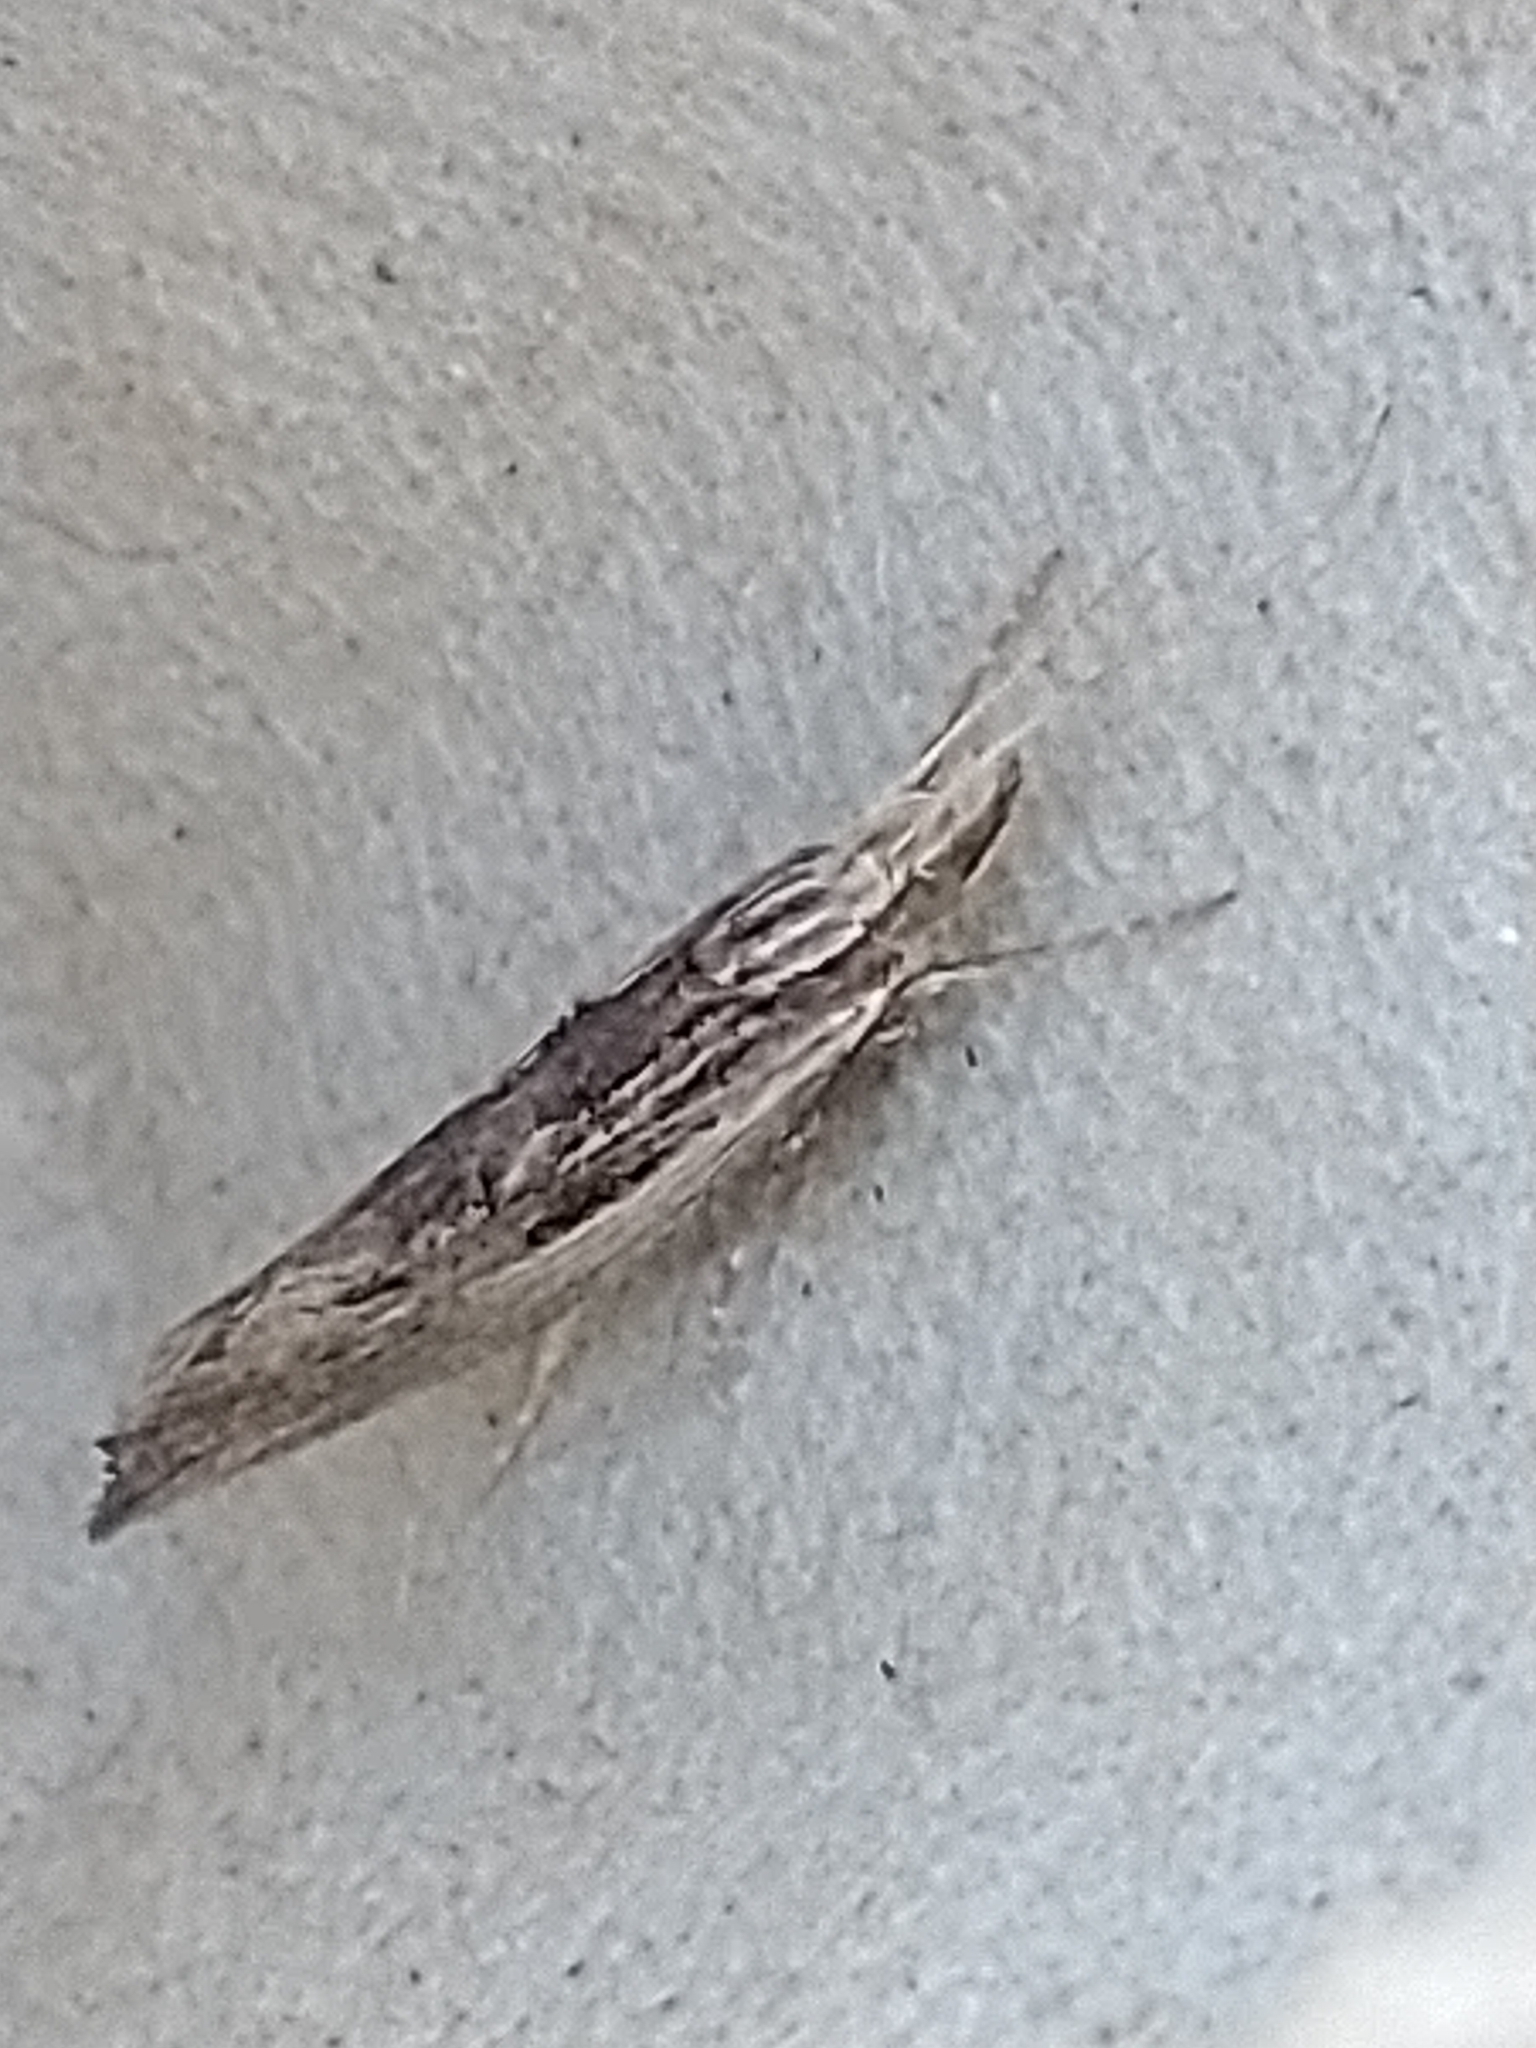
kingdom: Animalia
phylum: Arthropoda
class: Insecta
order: Lepidoptera
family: Ypsolophidae
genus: Ypsolopha
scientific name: Ypsolopha scabrella
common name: Wainscot smudge
